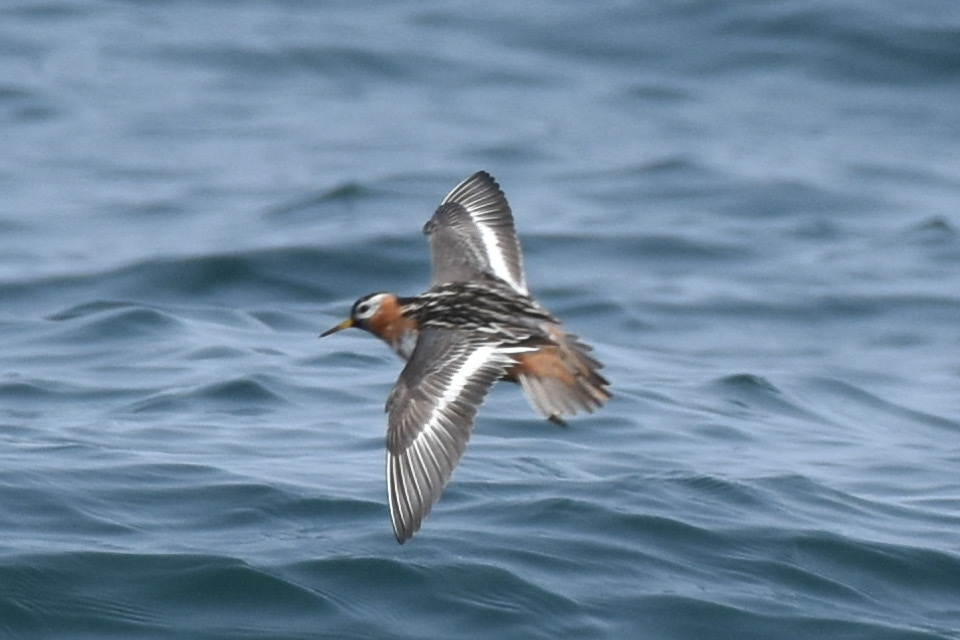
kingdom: Animalia
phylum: Chordata
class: Aves
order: Charadriiformes
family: Scolopacidae
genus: Phalaropus
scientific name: Phalaropus fulicarius
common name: Red phalarope
